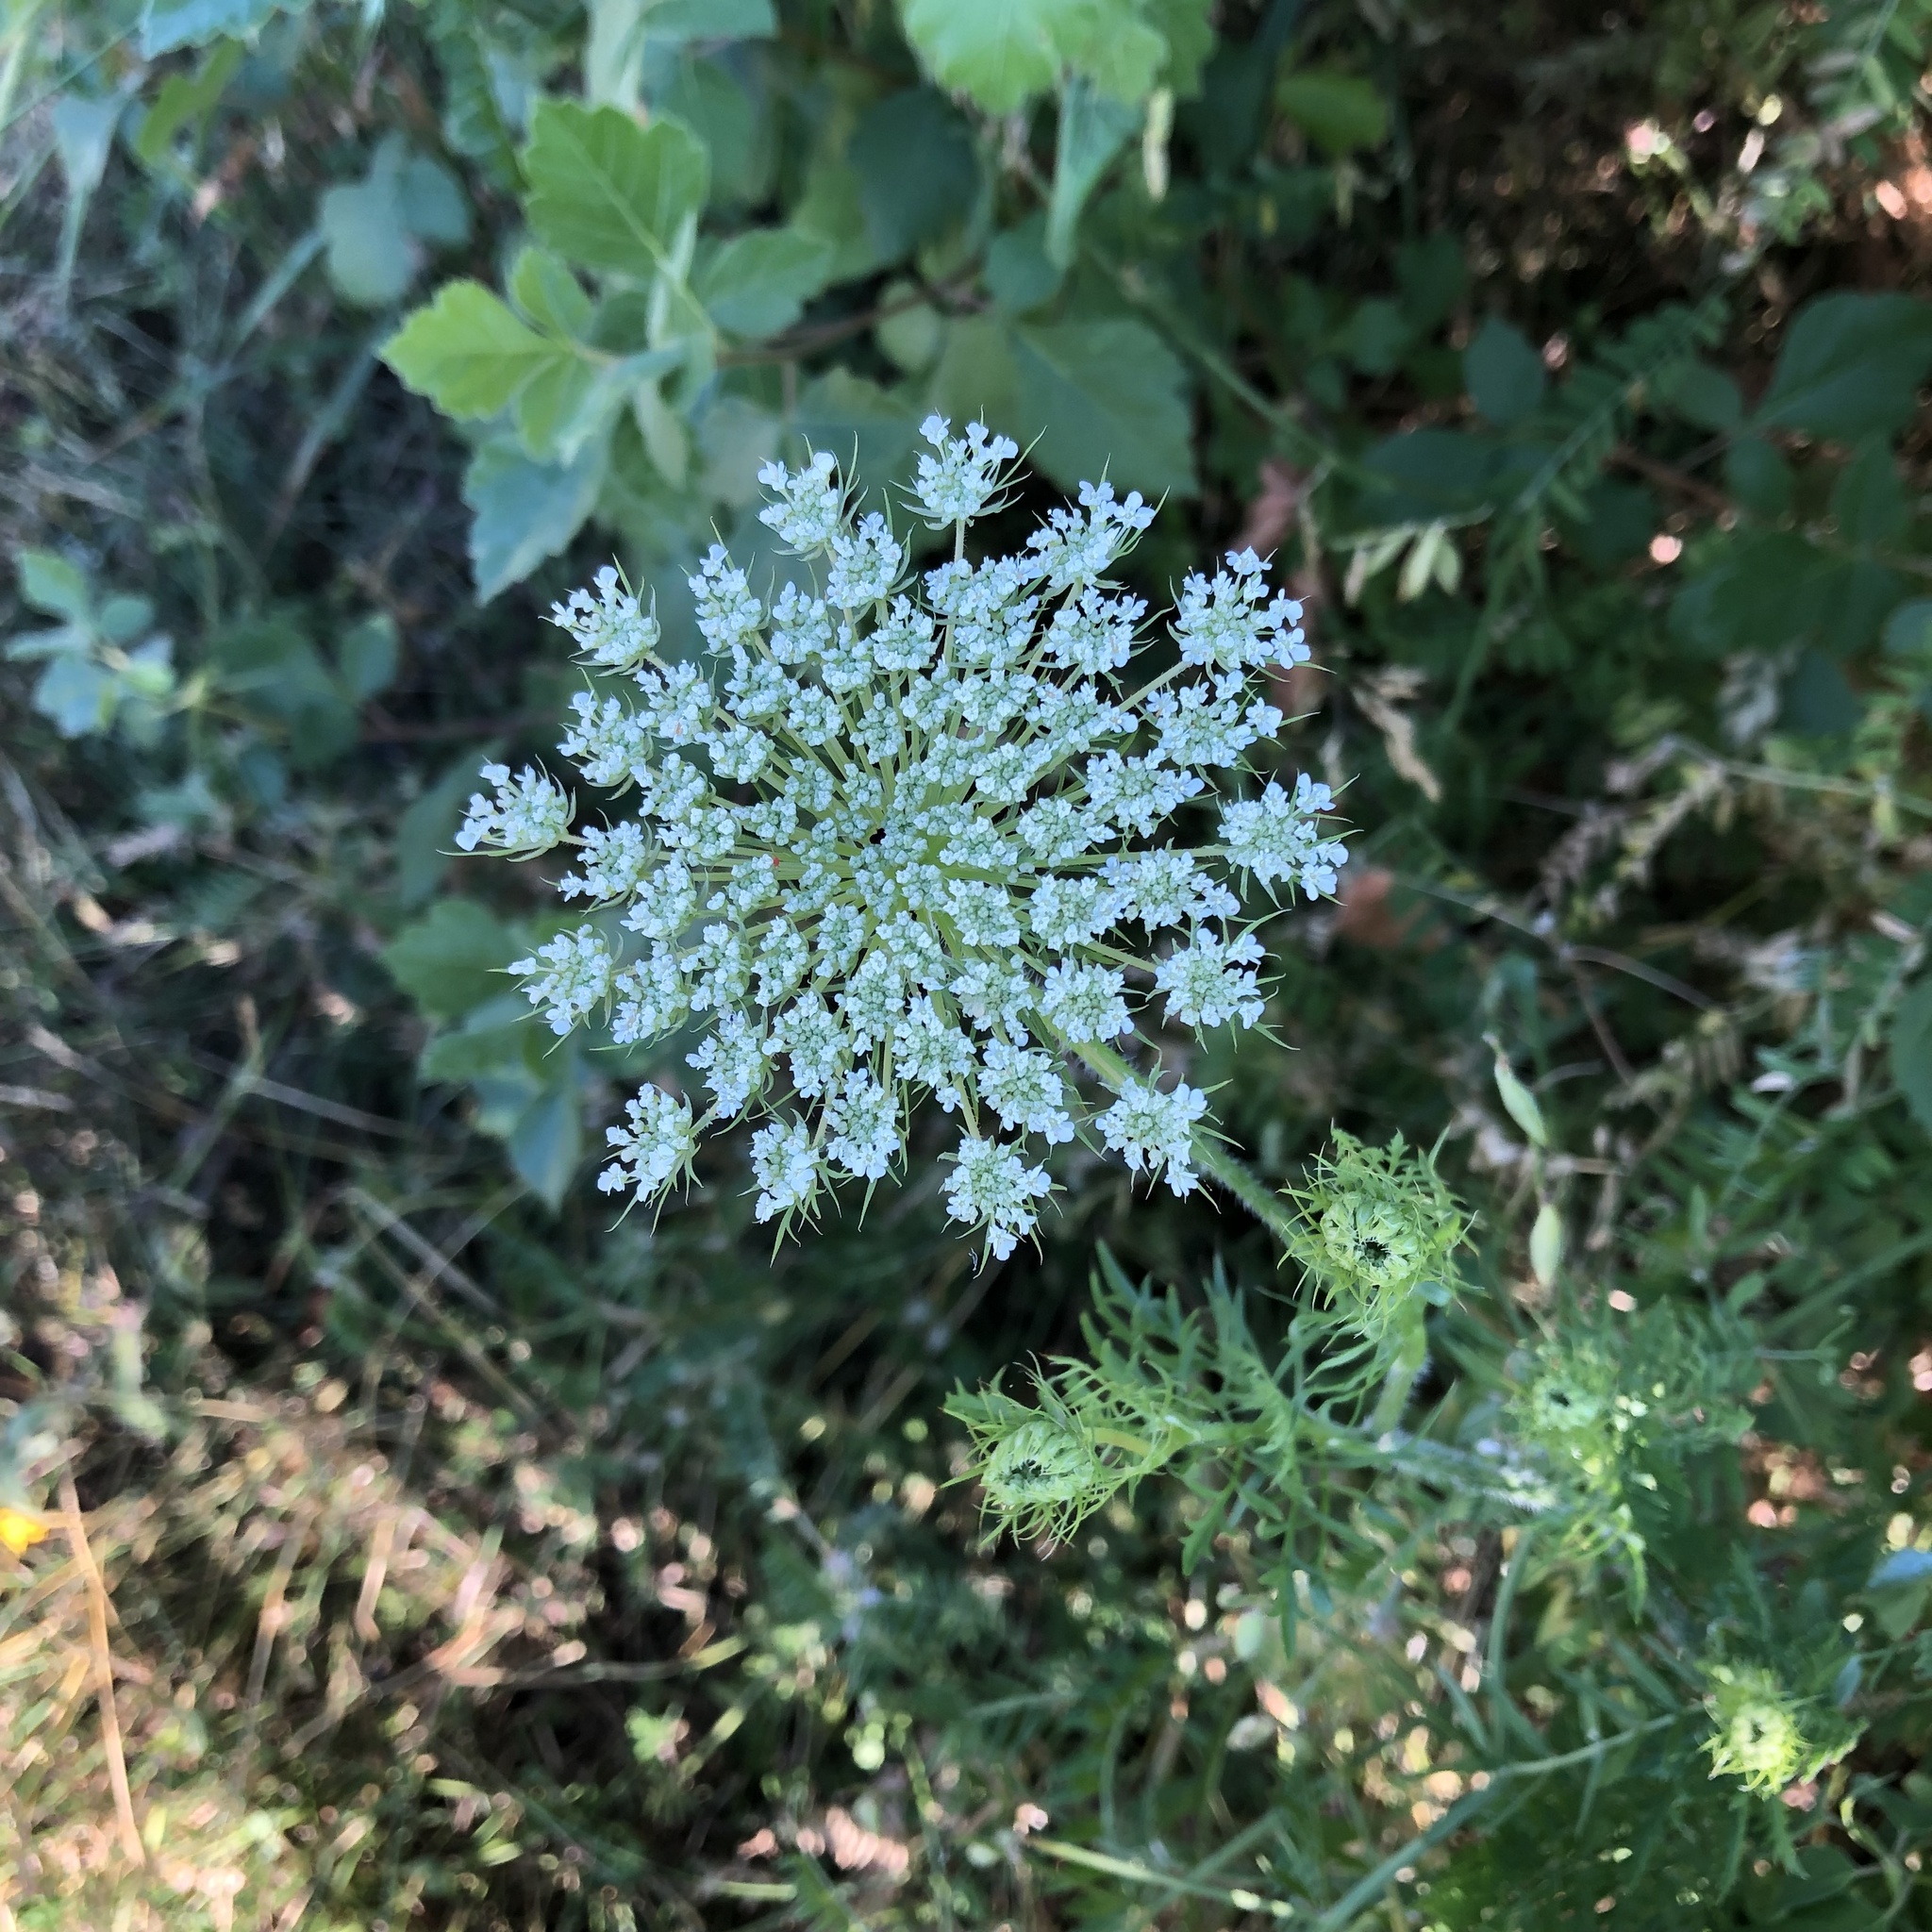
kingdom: Plantae
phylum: Tracheophyta
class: Magnoliopsida
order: Apiales
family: Apiaceae
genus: Daucus
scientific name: Daucus carota
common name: Wild carrot
